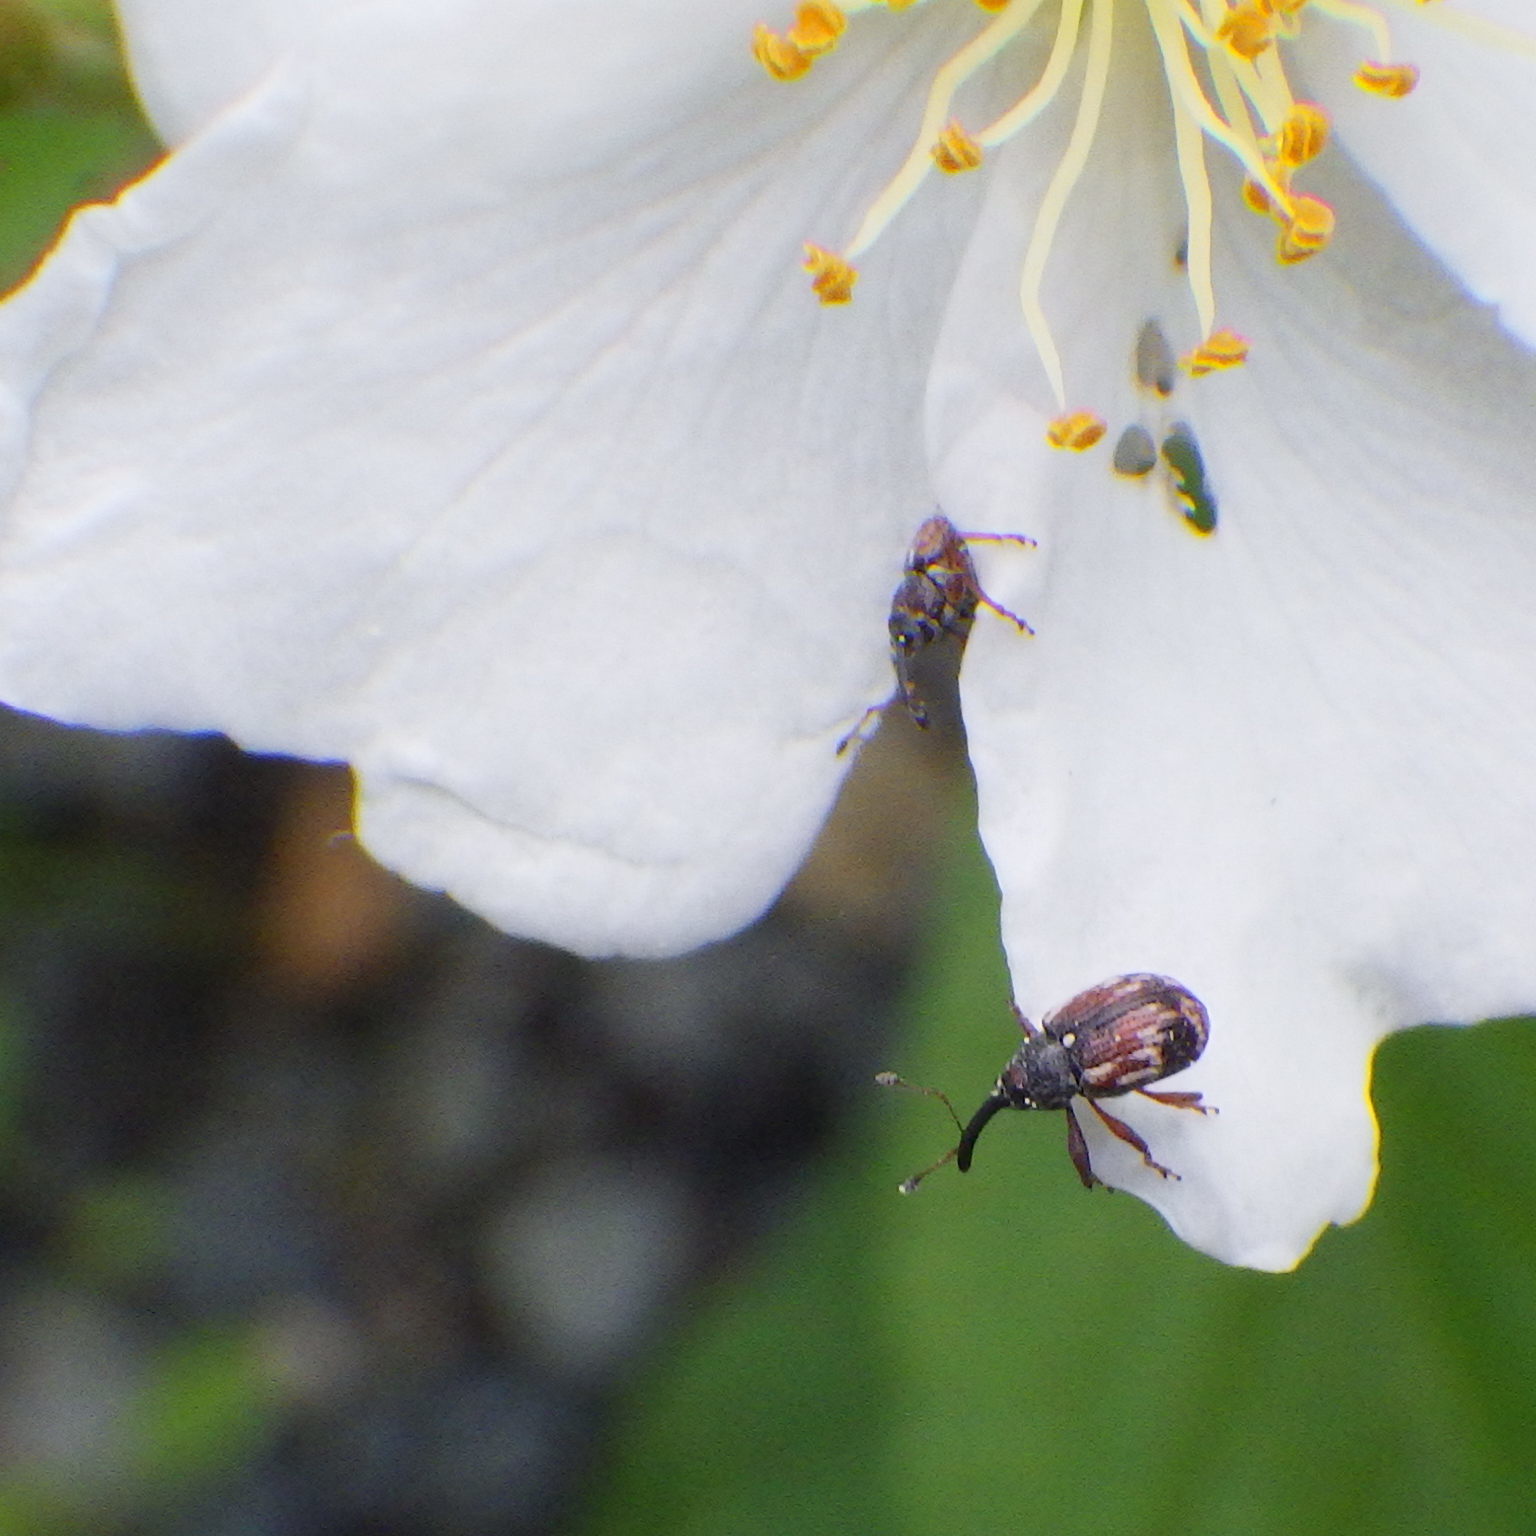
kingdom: Animalia
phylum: Arthropoda
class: Insecta
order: Coleoptera
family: Curculionidae
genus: Anthonomus
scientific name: Anthonomus signatus
